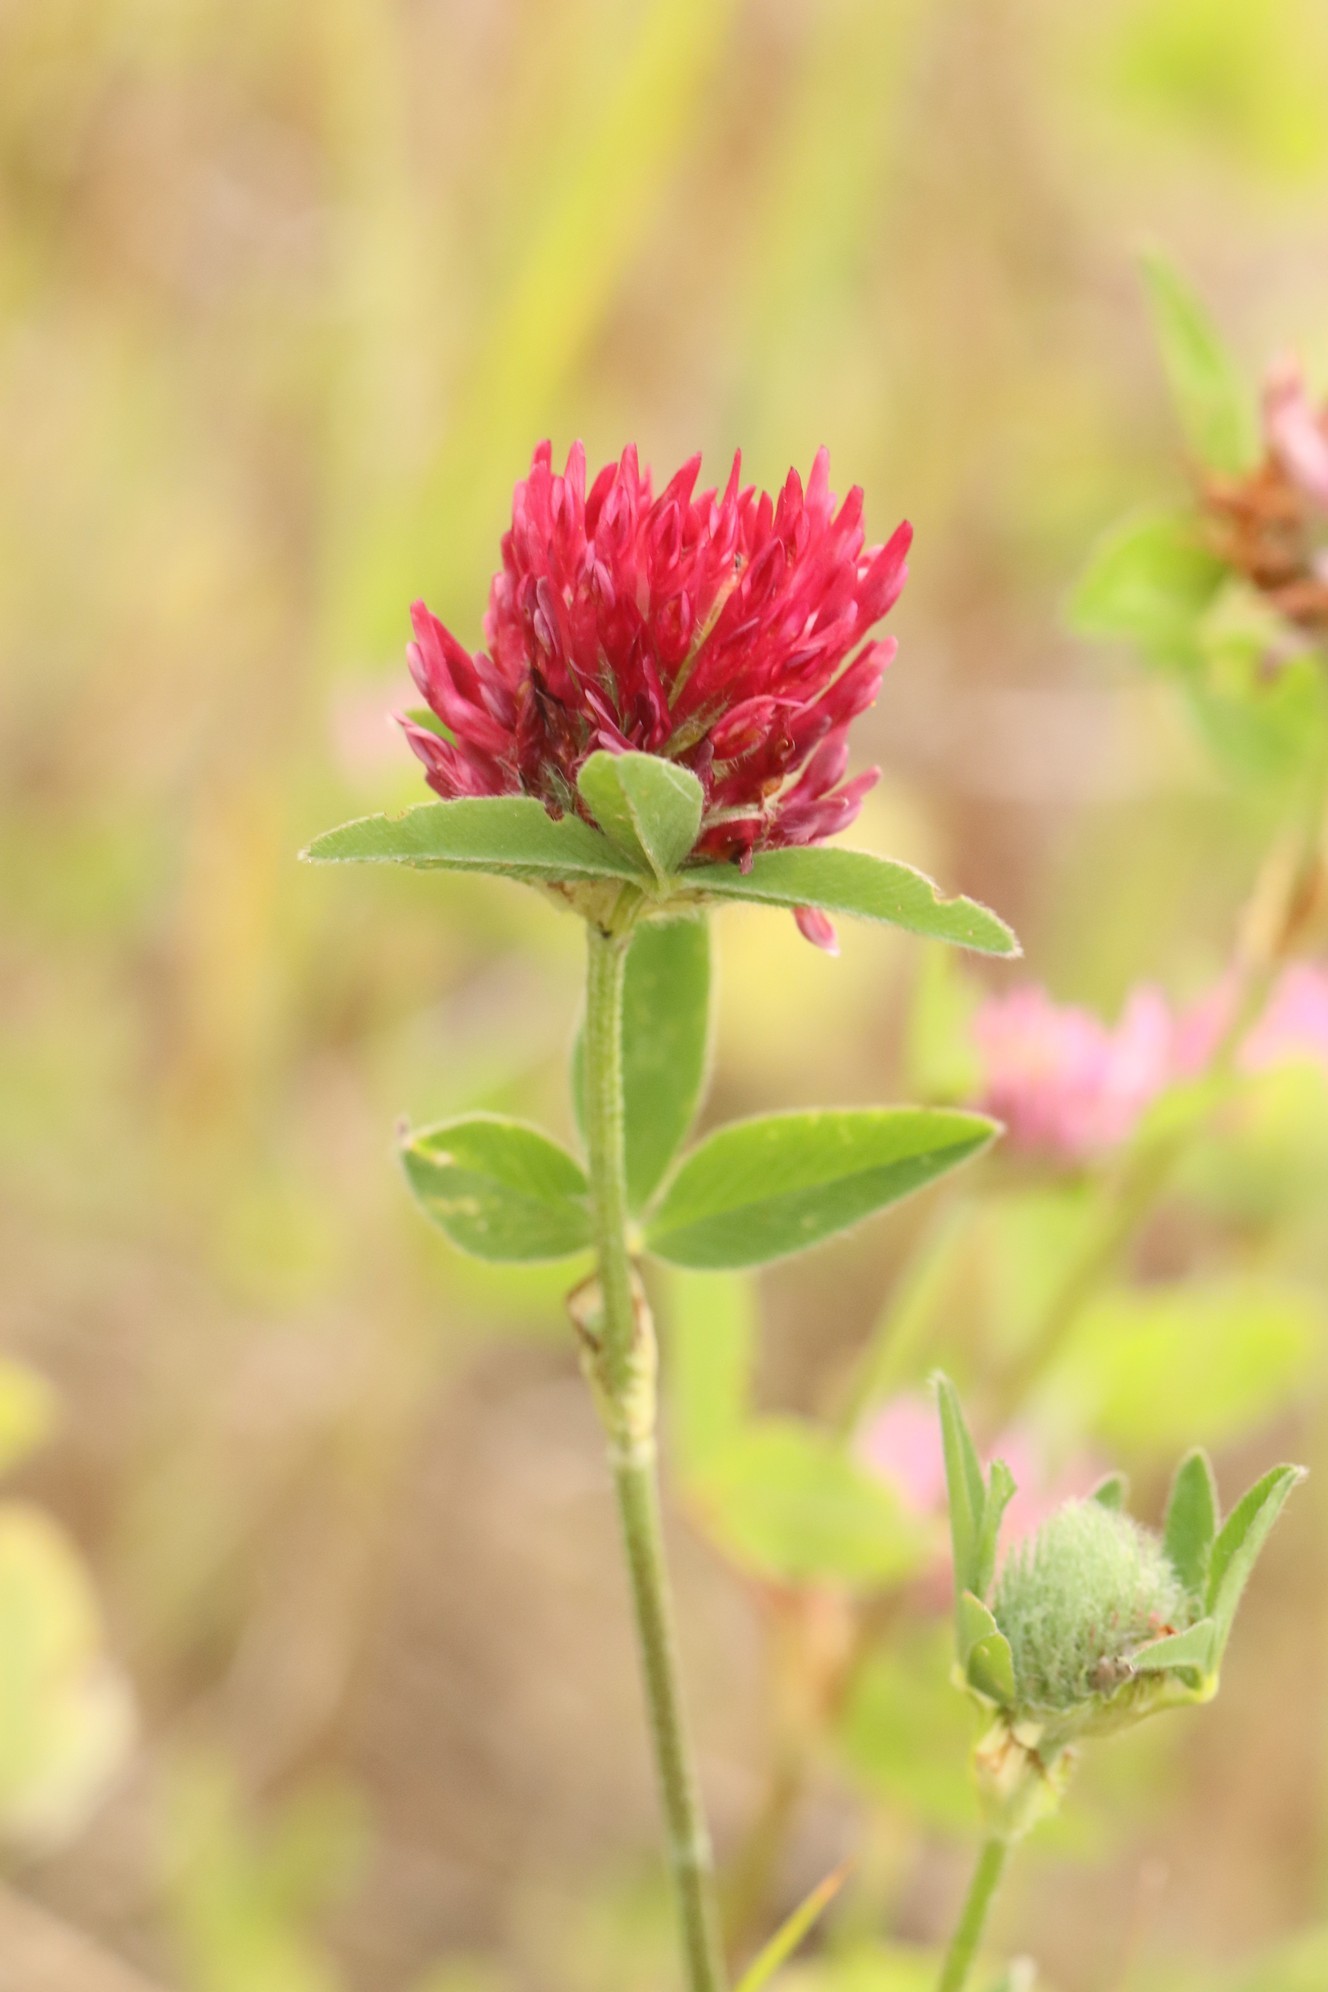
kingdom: Plantae
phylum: Tracheophyta
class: Magnoliopsida
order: Fabales
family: Fabaceae
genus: Trifolium
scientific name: Trifolium pratense
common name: Red clover
